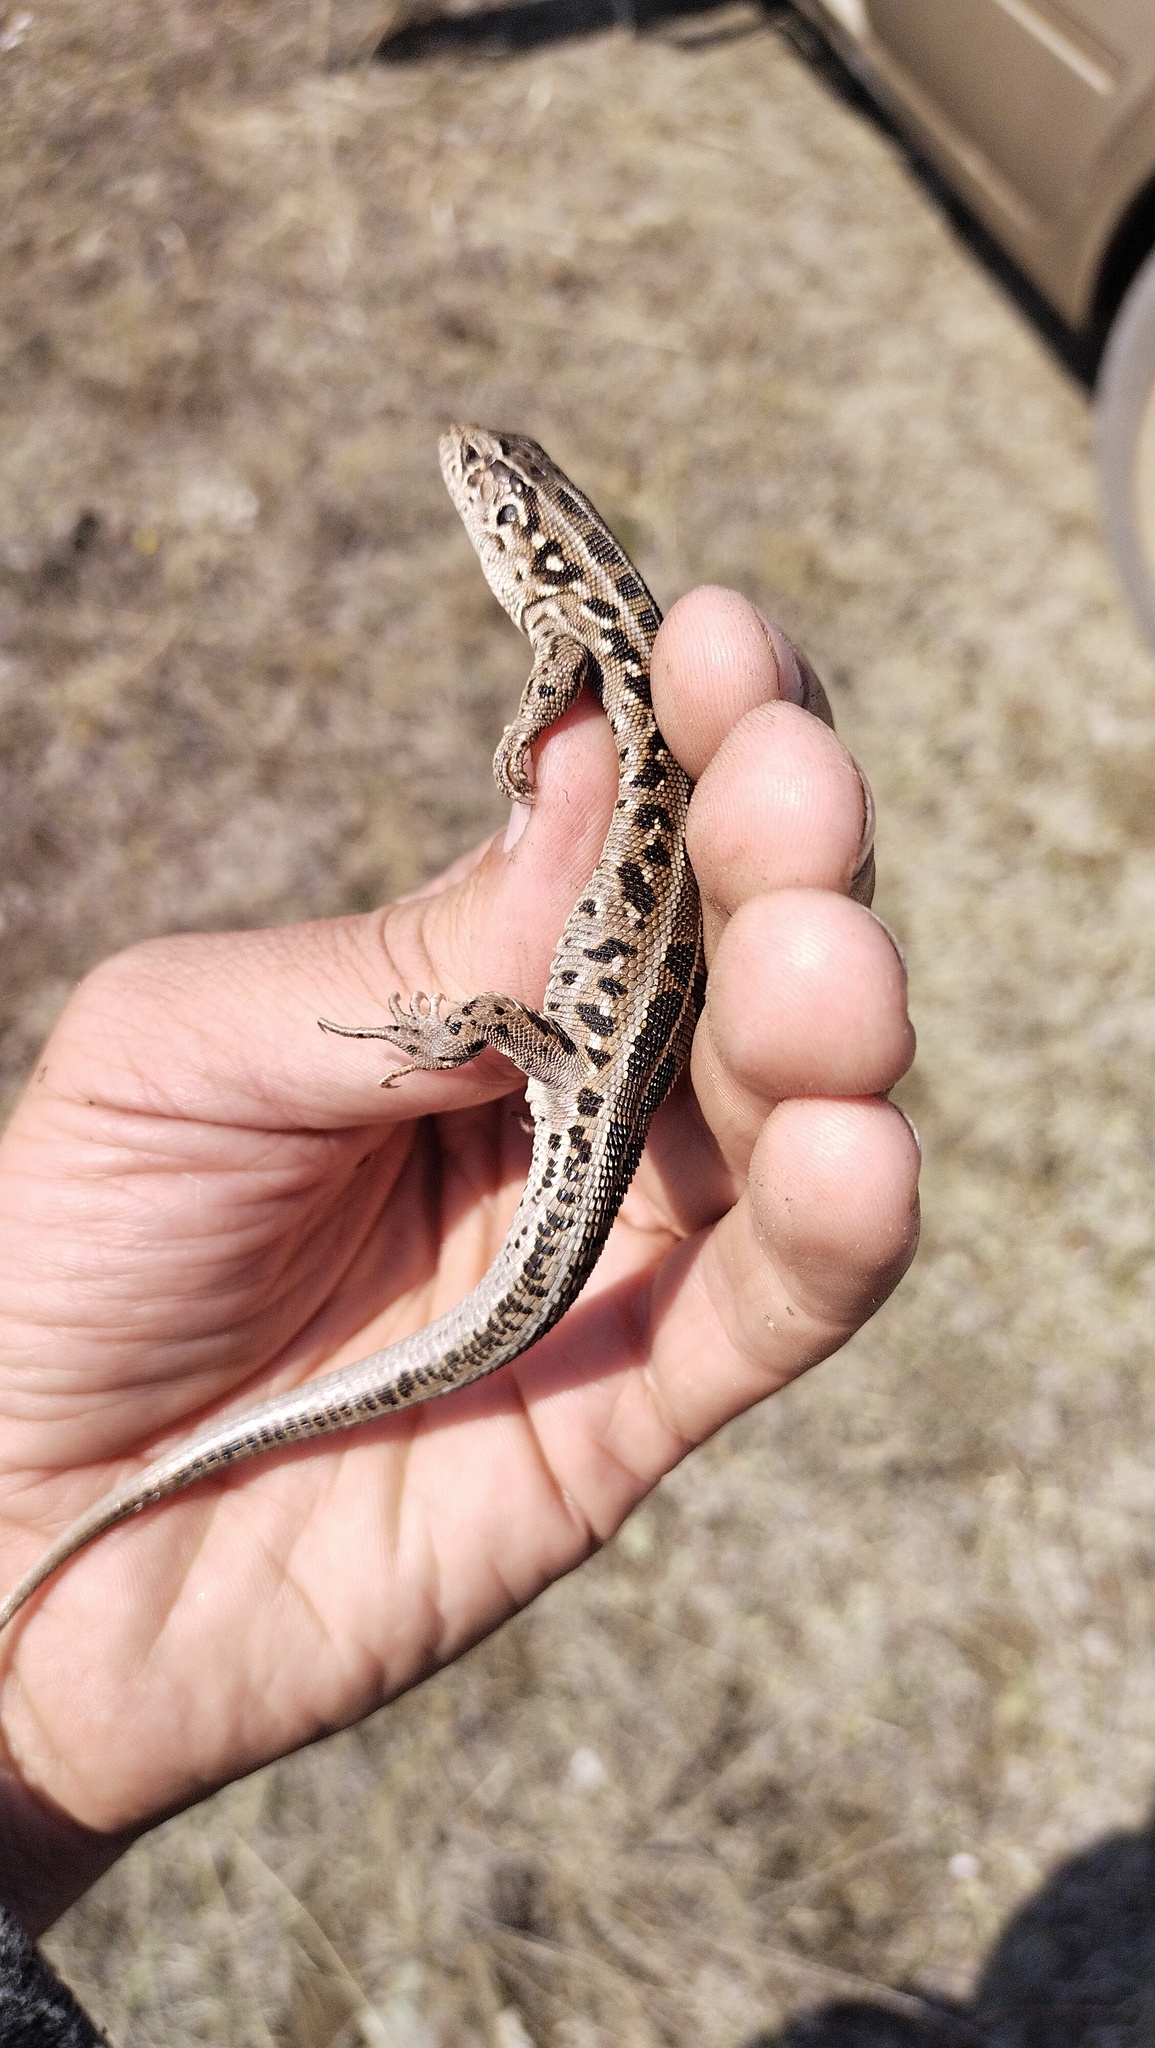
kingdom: Animalia
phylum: Chordata
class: Squamata
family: Lacertidae
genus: Lacerta
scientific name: Lacerta agilis
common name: Sand lizard
